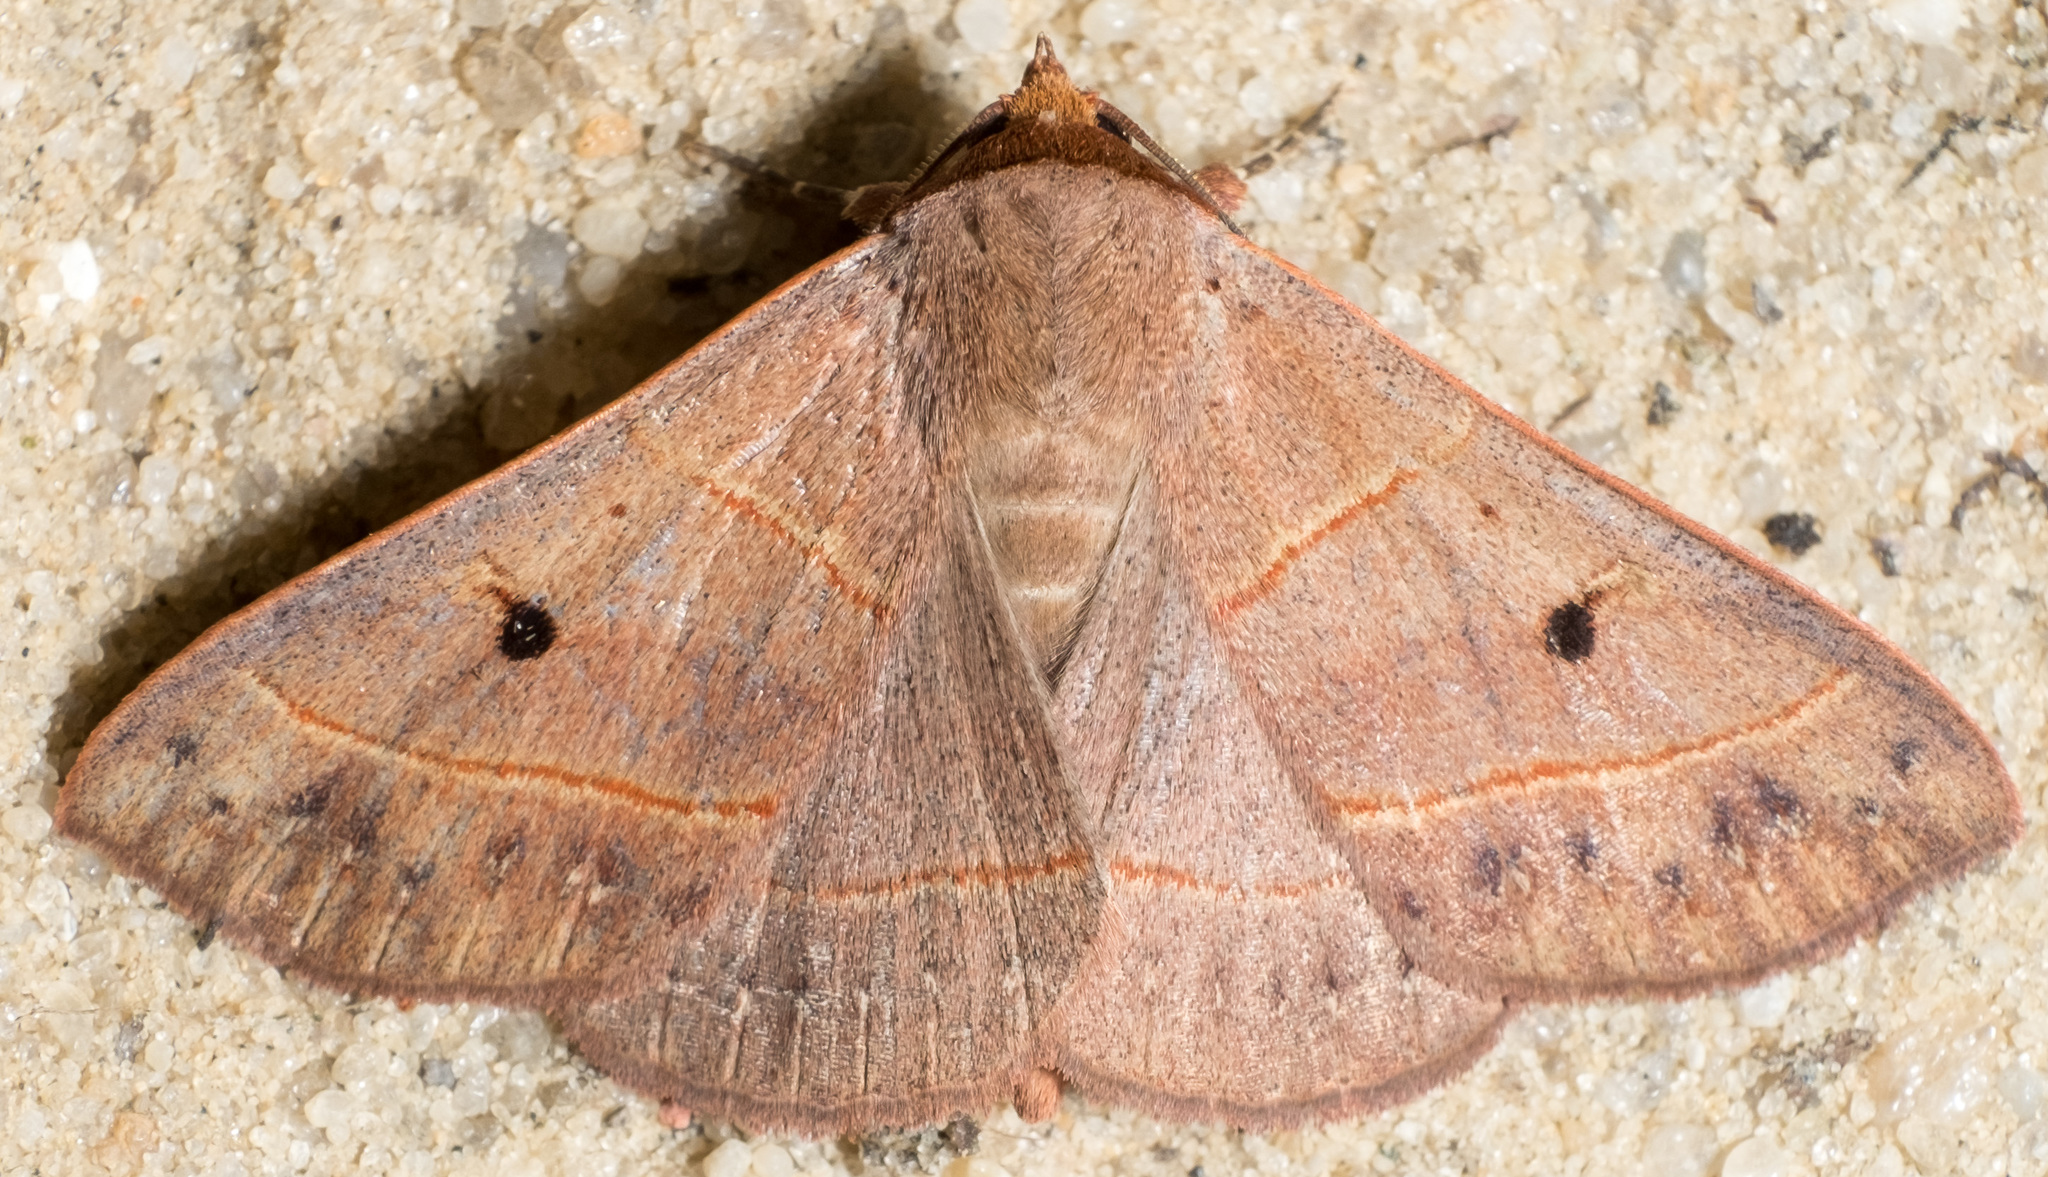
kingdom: Animalia
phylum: Arthropoda
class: Insecta
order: Lepidoptera
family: Erebidae
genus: Panopoda
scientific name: Panopoda rufimargo
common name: Red-lined panopoda moth
